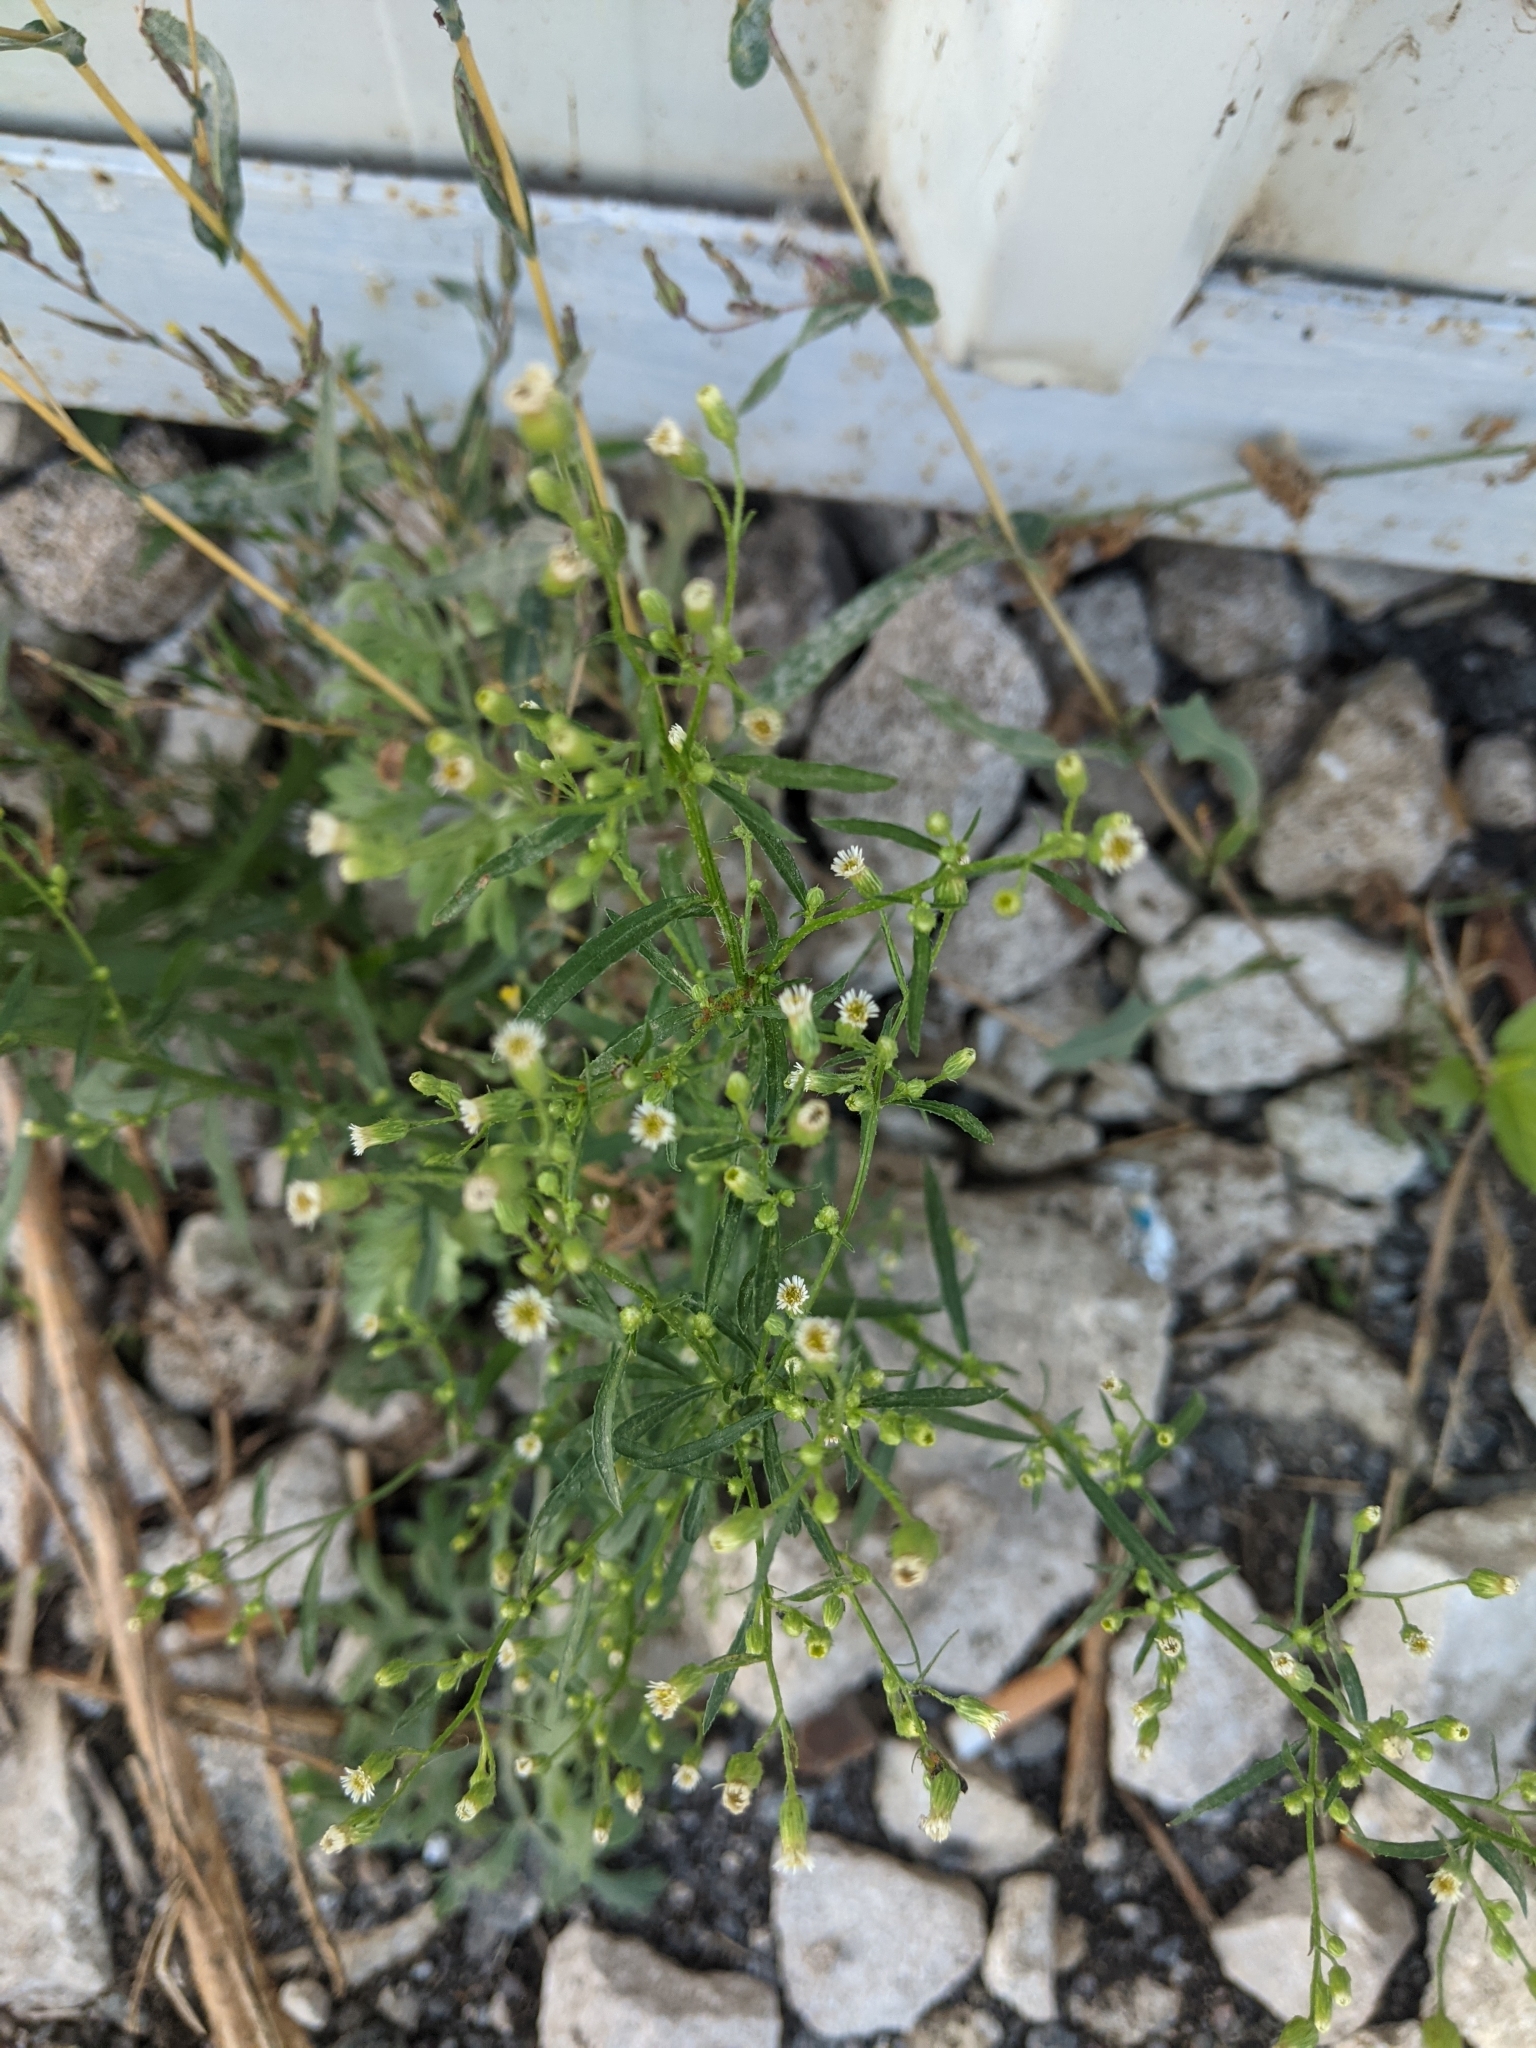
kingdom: Plantae
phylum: Tracheophyta
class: Magnoliopsida
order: Asterales
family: Asteraceae
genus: Erigeron
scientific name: Erigeron canadensis
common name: Canadian fleabane
